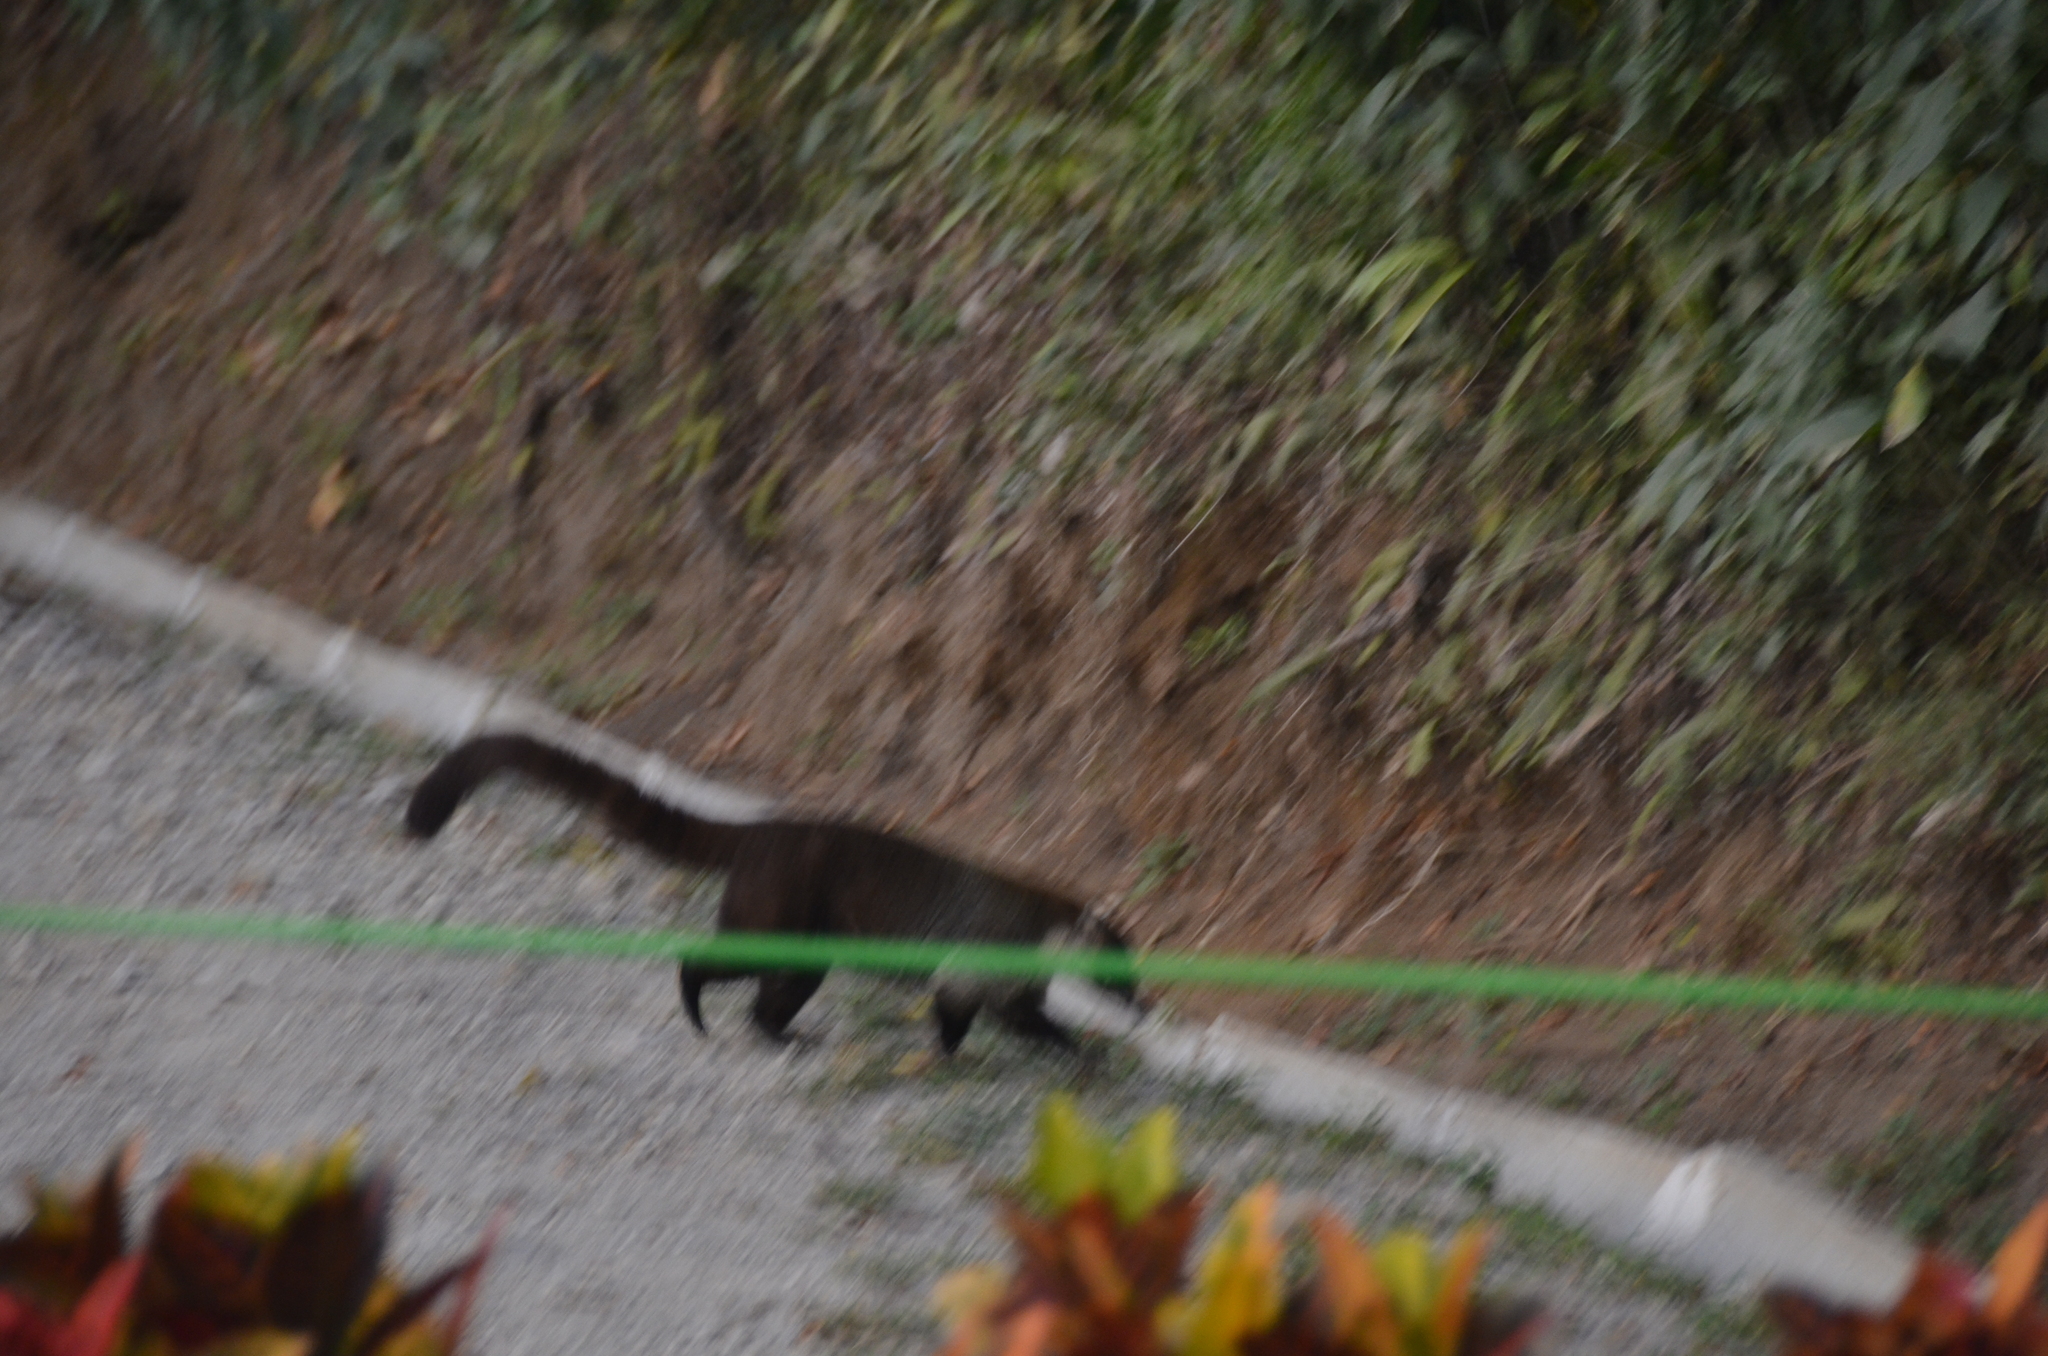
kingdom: Animalia
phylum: Chordata
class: Mammalia
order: Carnivora
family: Procyonidae
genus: Nasua
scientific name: Nasua narica
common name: White-nosed coati
